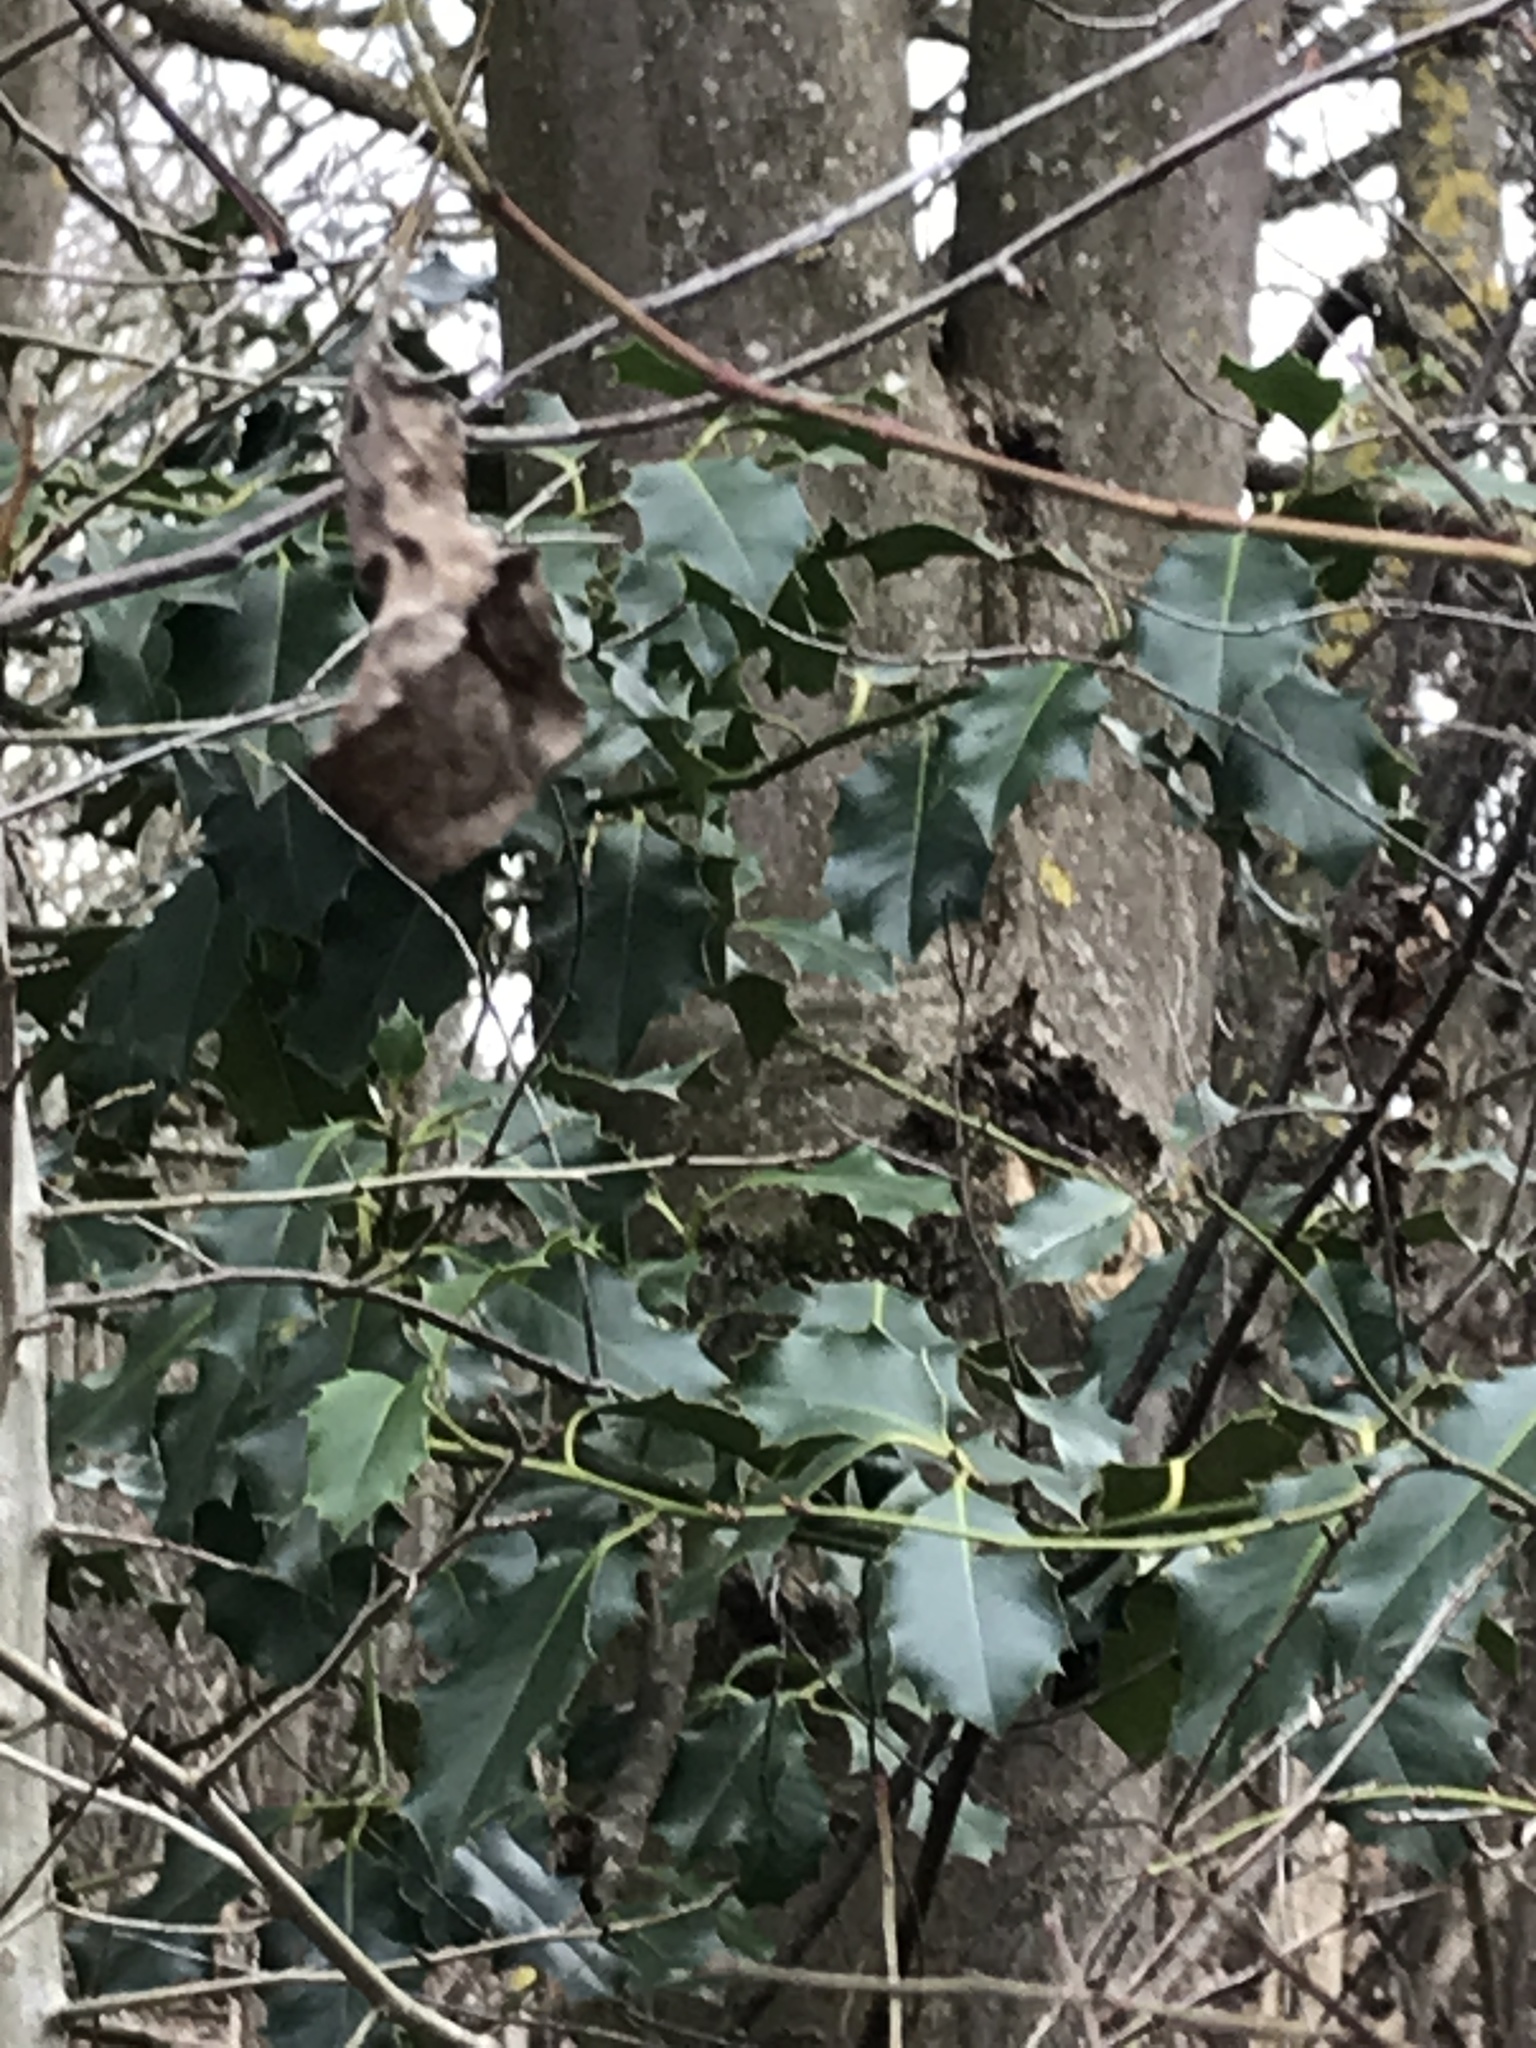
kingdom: Plantae
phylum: Tracheophyta
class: Magnoliopsida
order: Aquifoliales
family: Aquifoliaceae
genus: Ilex
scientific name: Ilex aquifolium
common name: English holly
